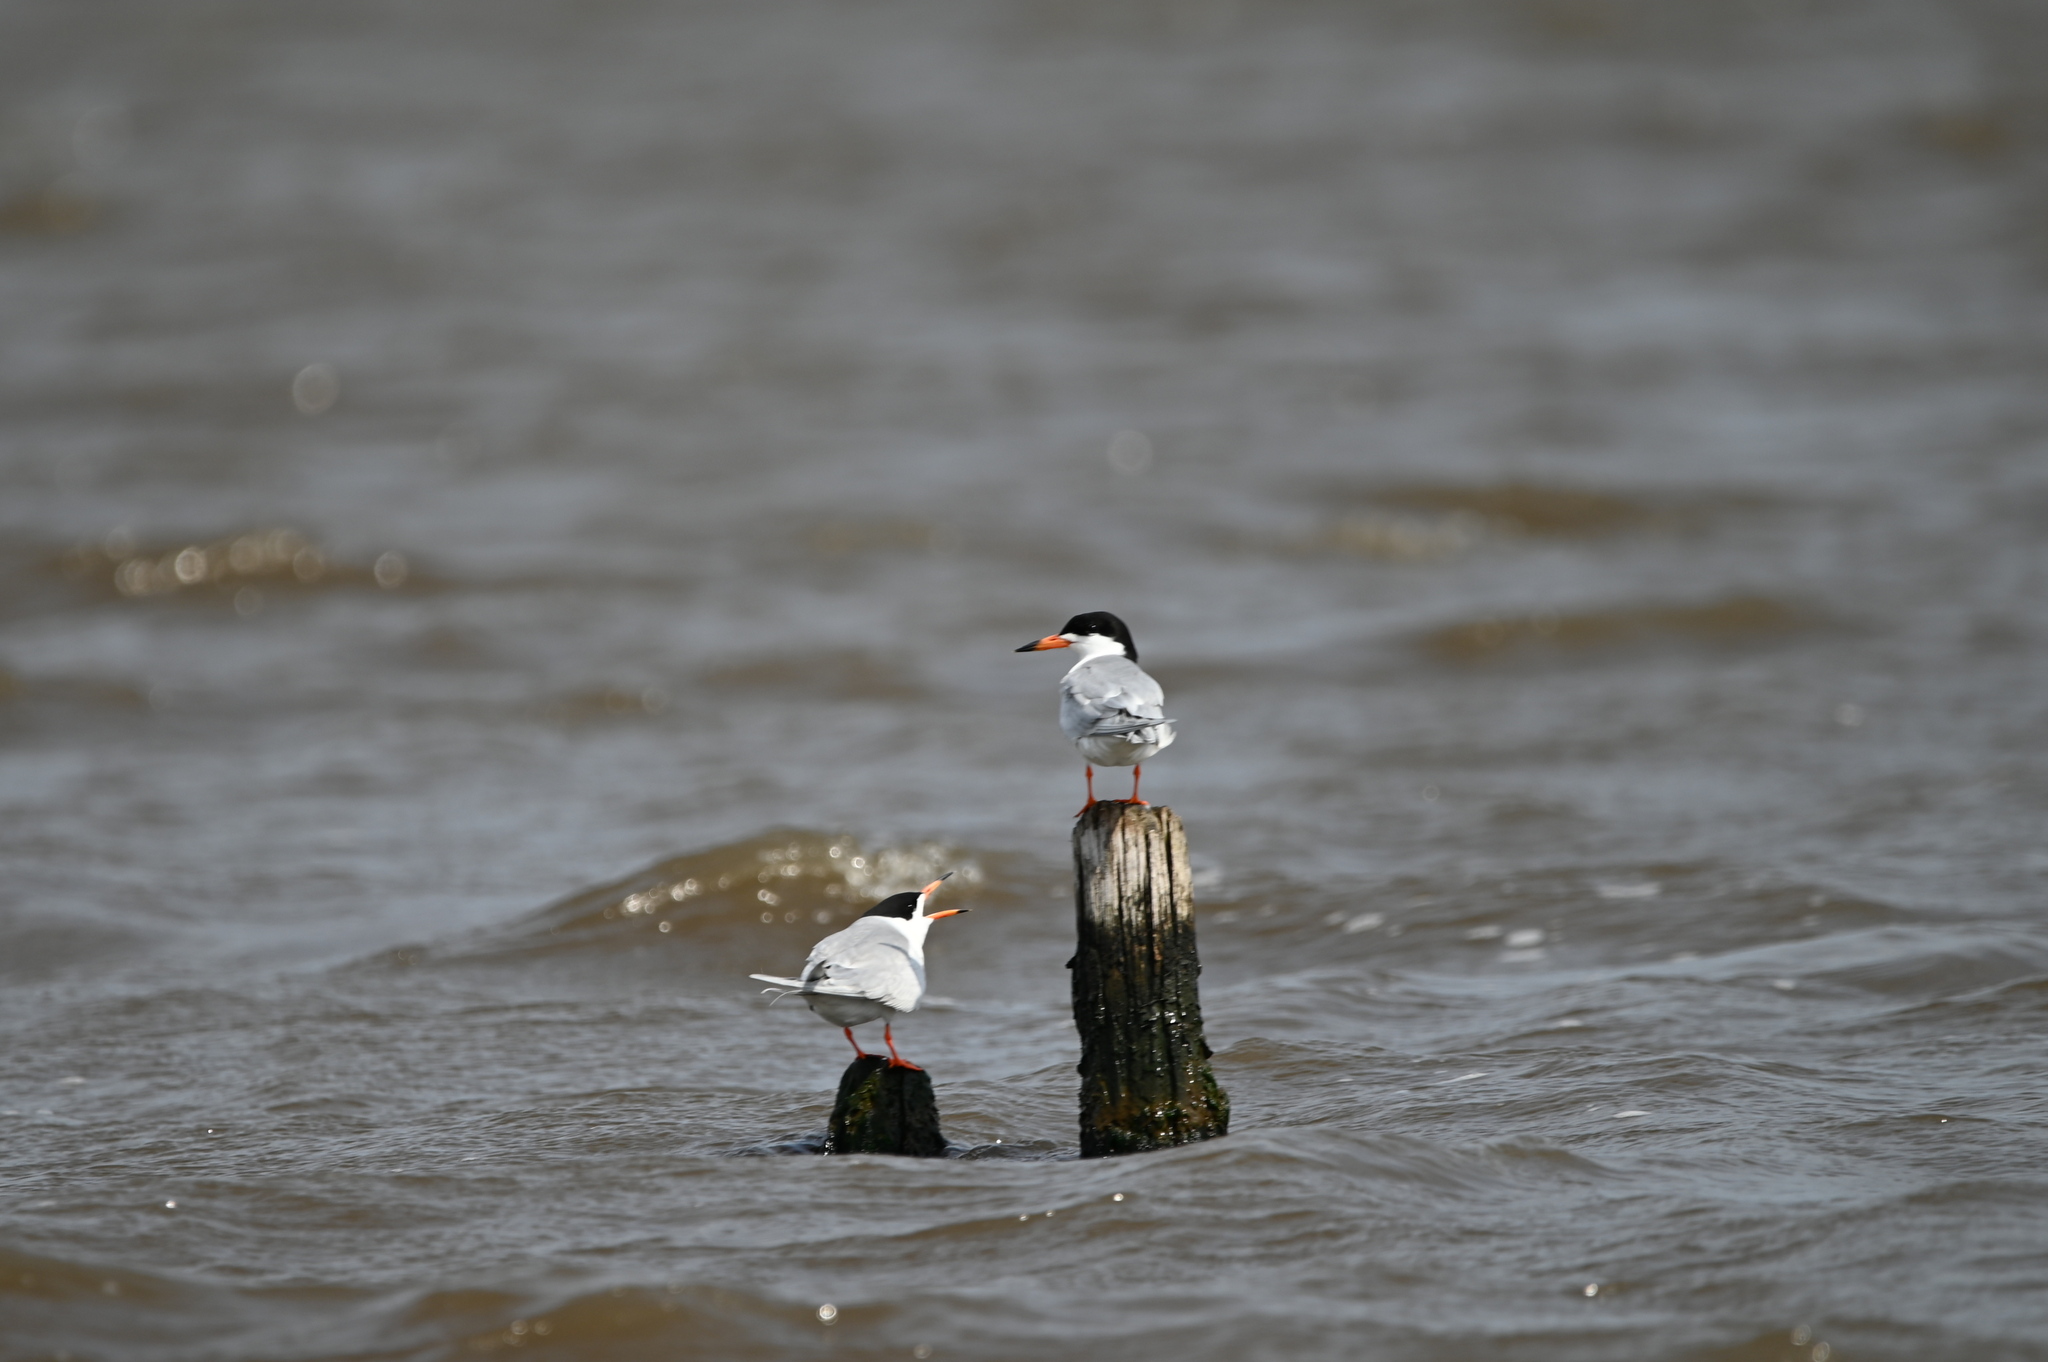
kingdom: Animalia
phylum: Chordata
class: Aves
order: Charadriiformes
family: Laridae
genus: Sterna
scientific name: Sterna forsteri
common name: Forster's tern
